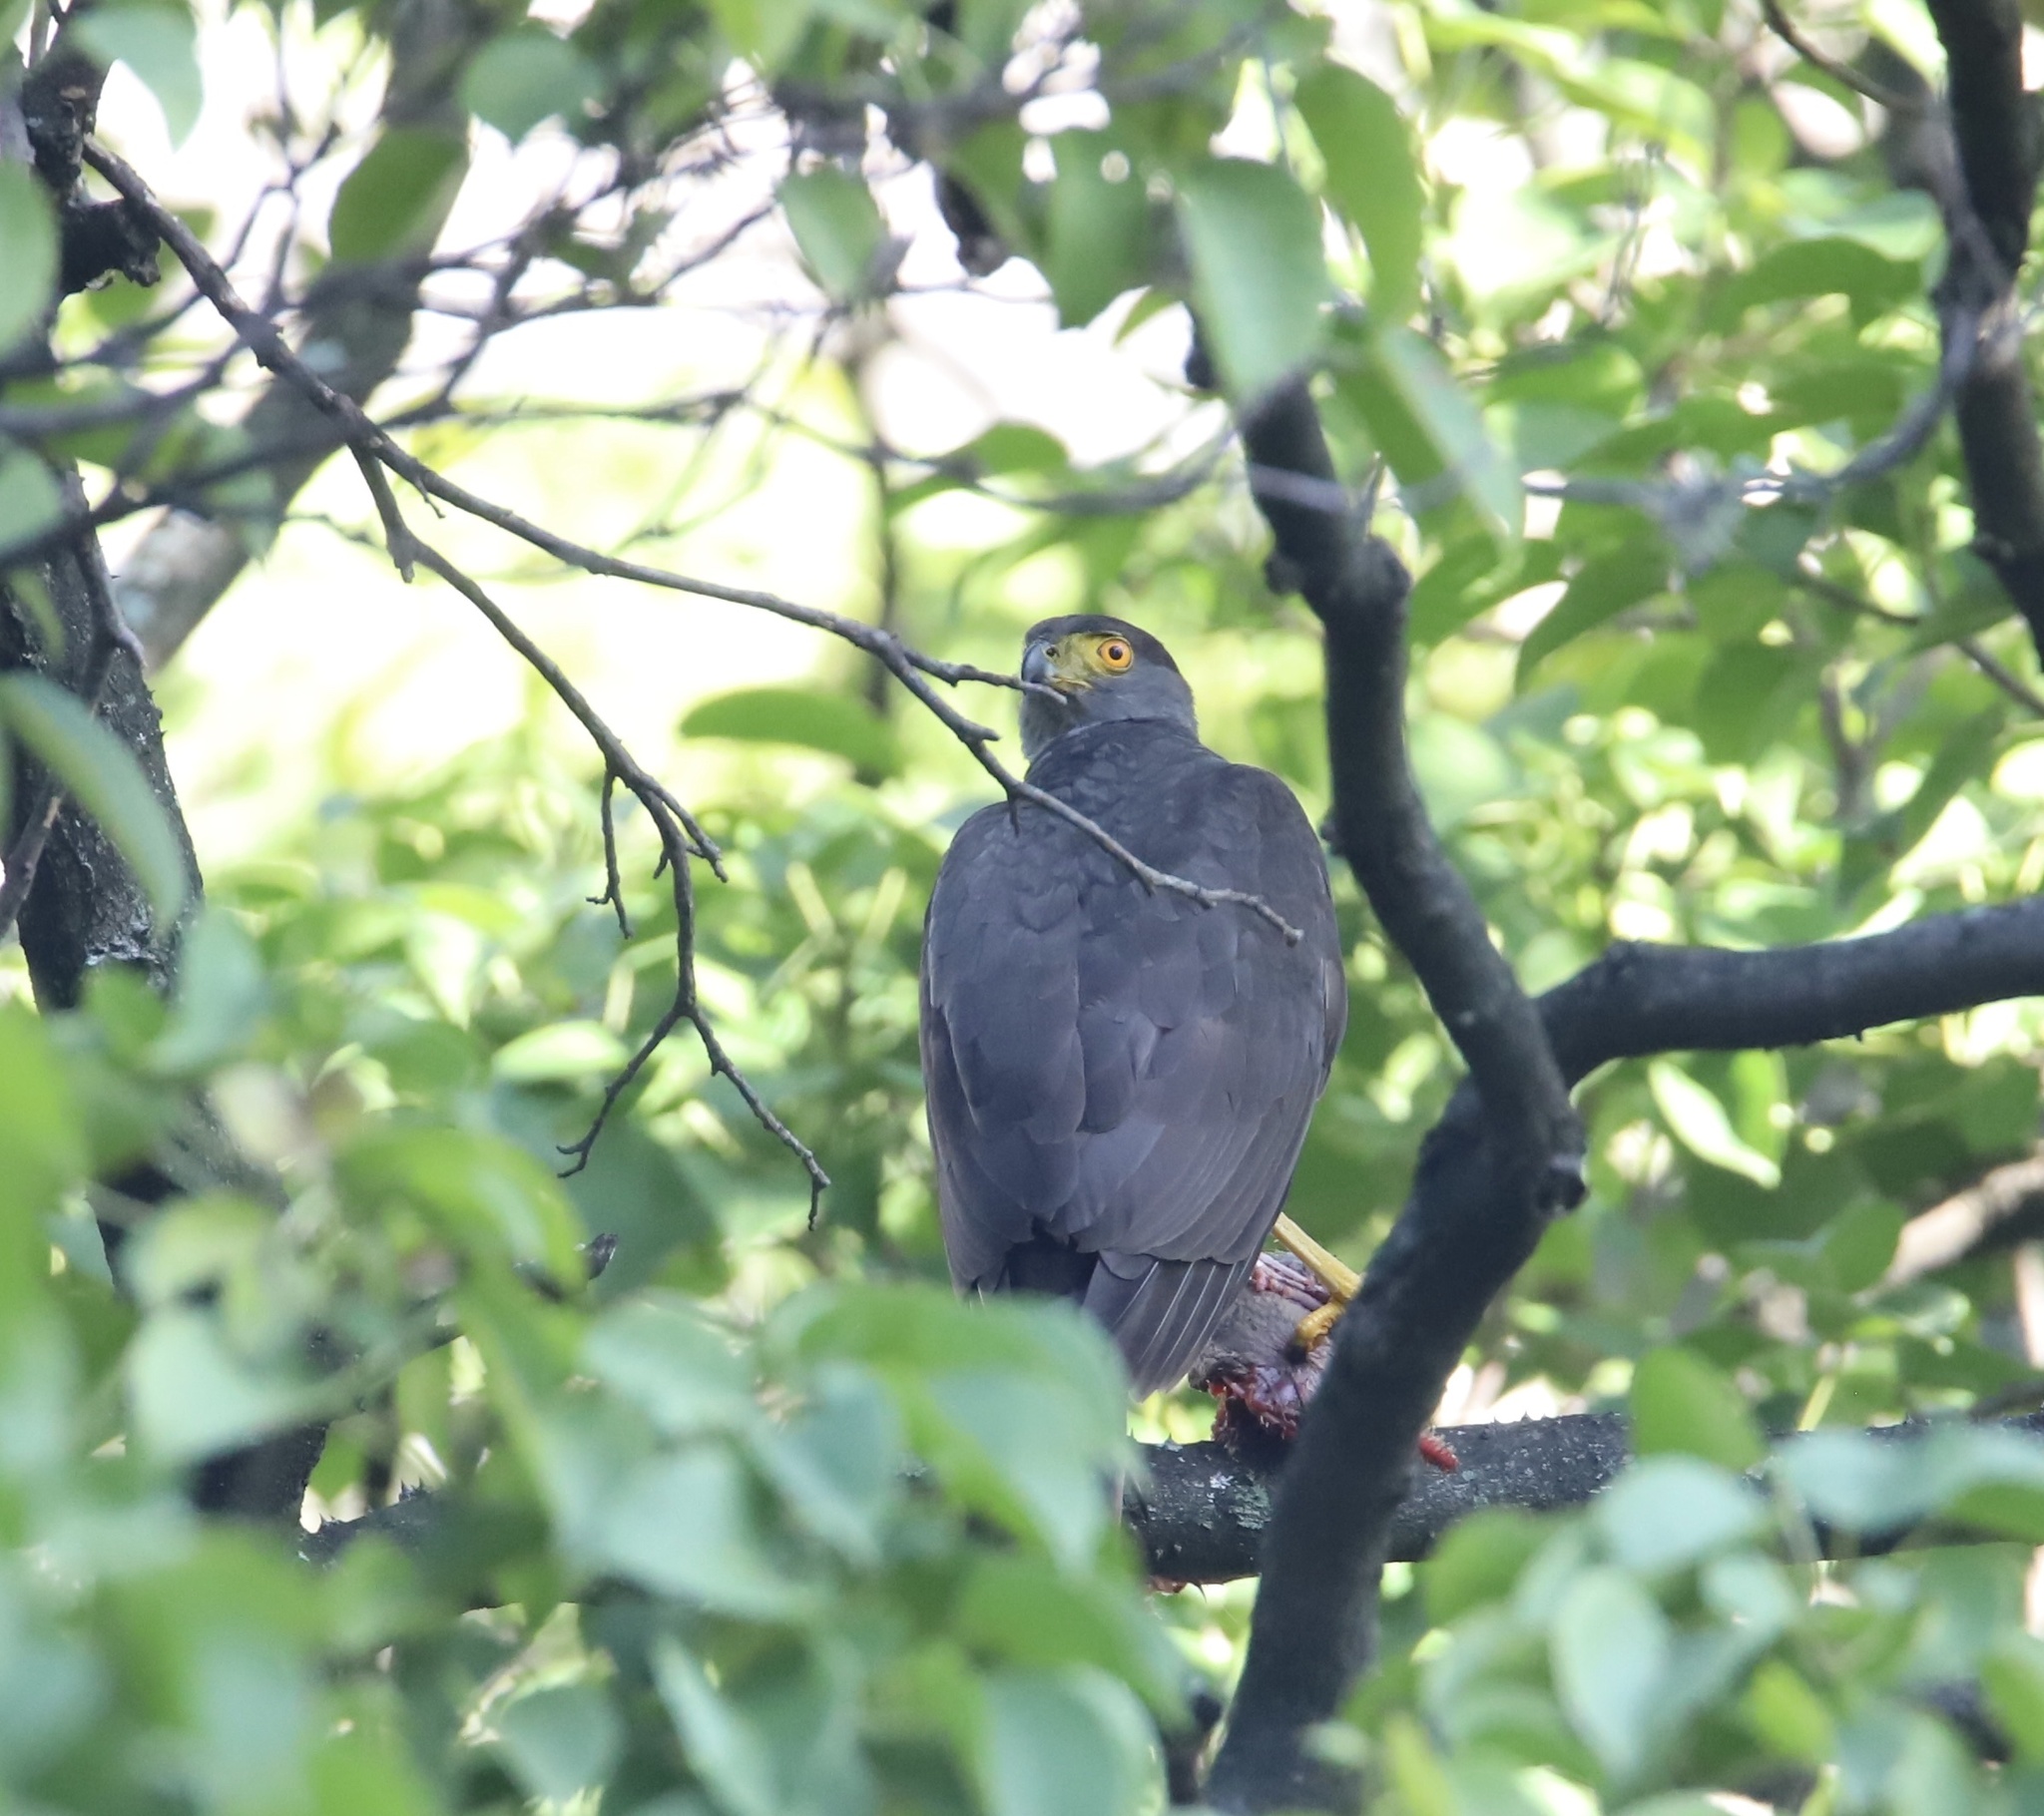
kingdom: Animalia
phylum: Chordata
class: Aves
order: Accipitriformes
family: Accipitridae
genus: Accipiter
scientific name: Accipiter bicolor
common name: Bicolored hawk
